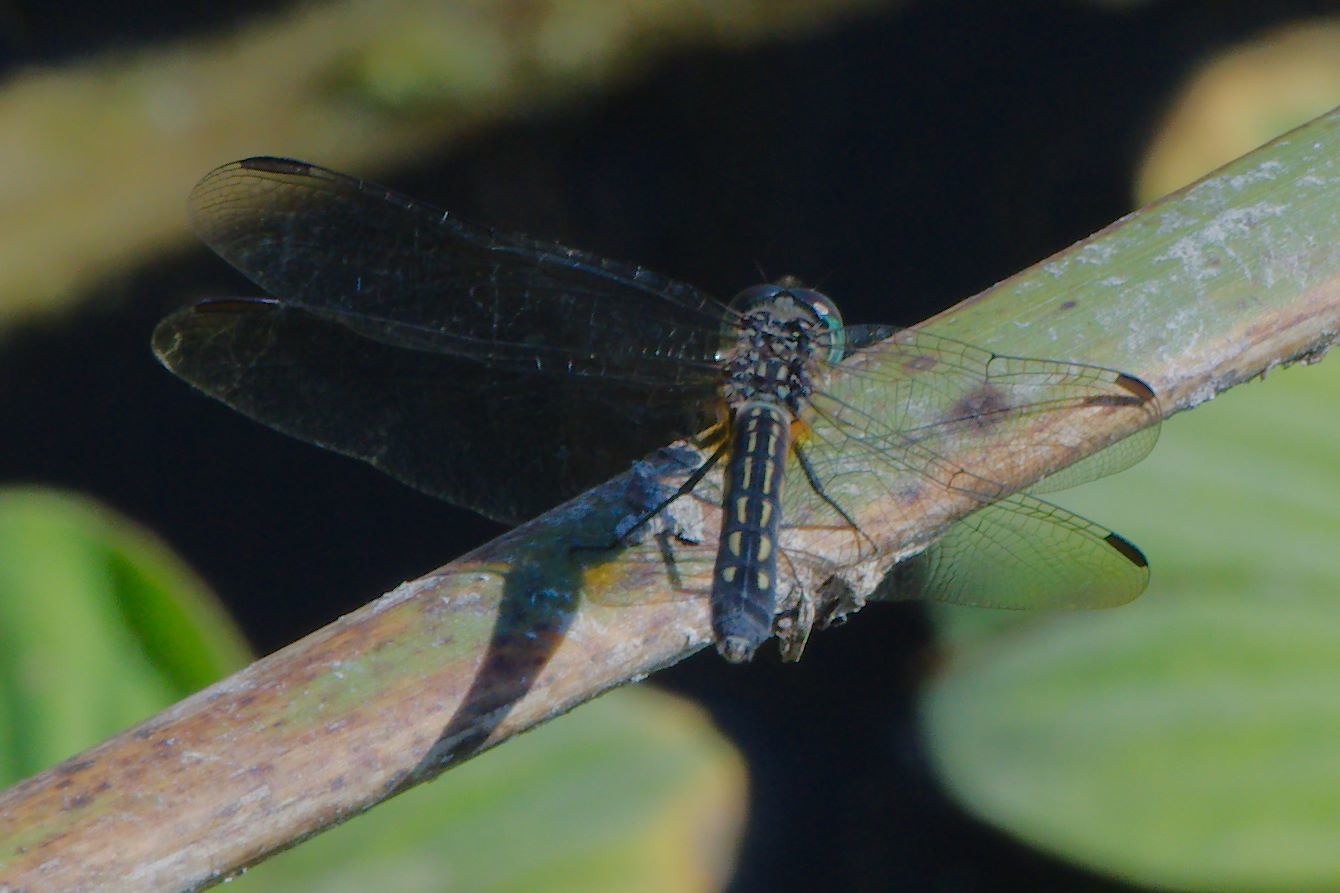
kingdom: Animalia
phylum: Arthropoda
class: Insecta
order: Odonata
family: Libellulidae
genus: Pachydiplax
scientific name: Pachydiplax longipennis
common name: Blue dasher
